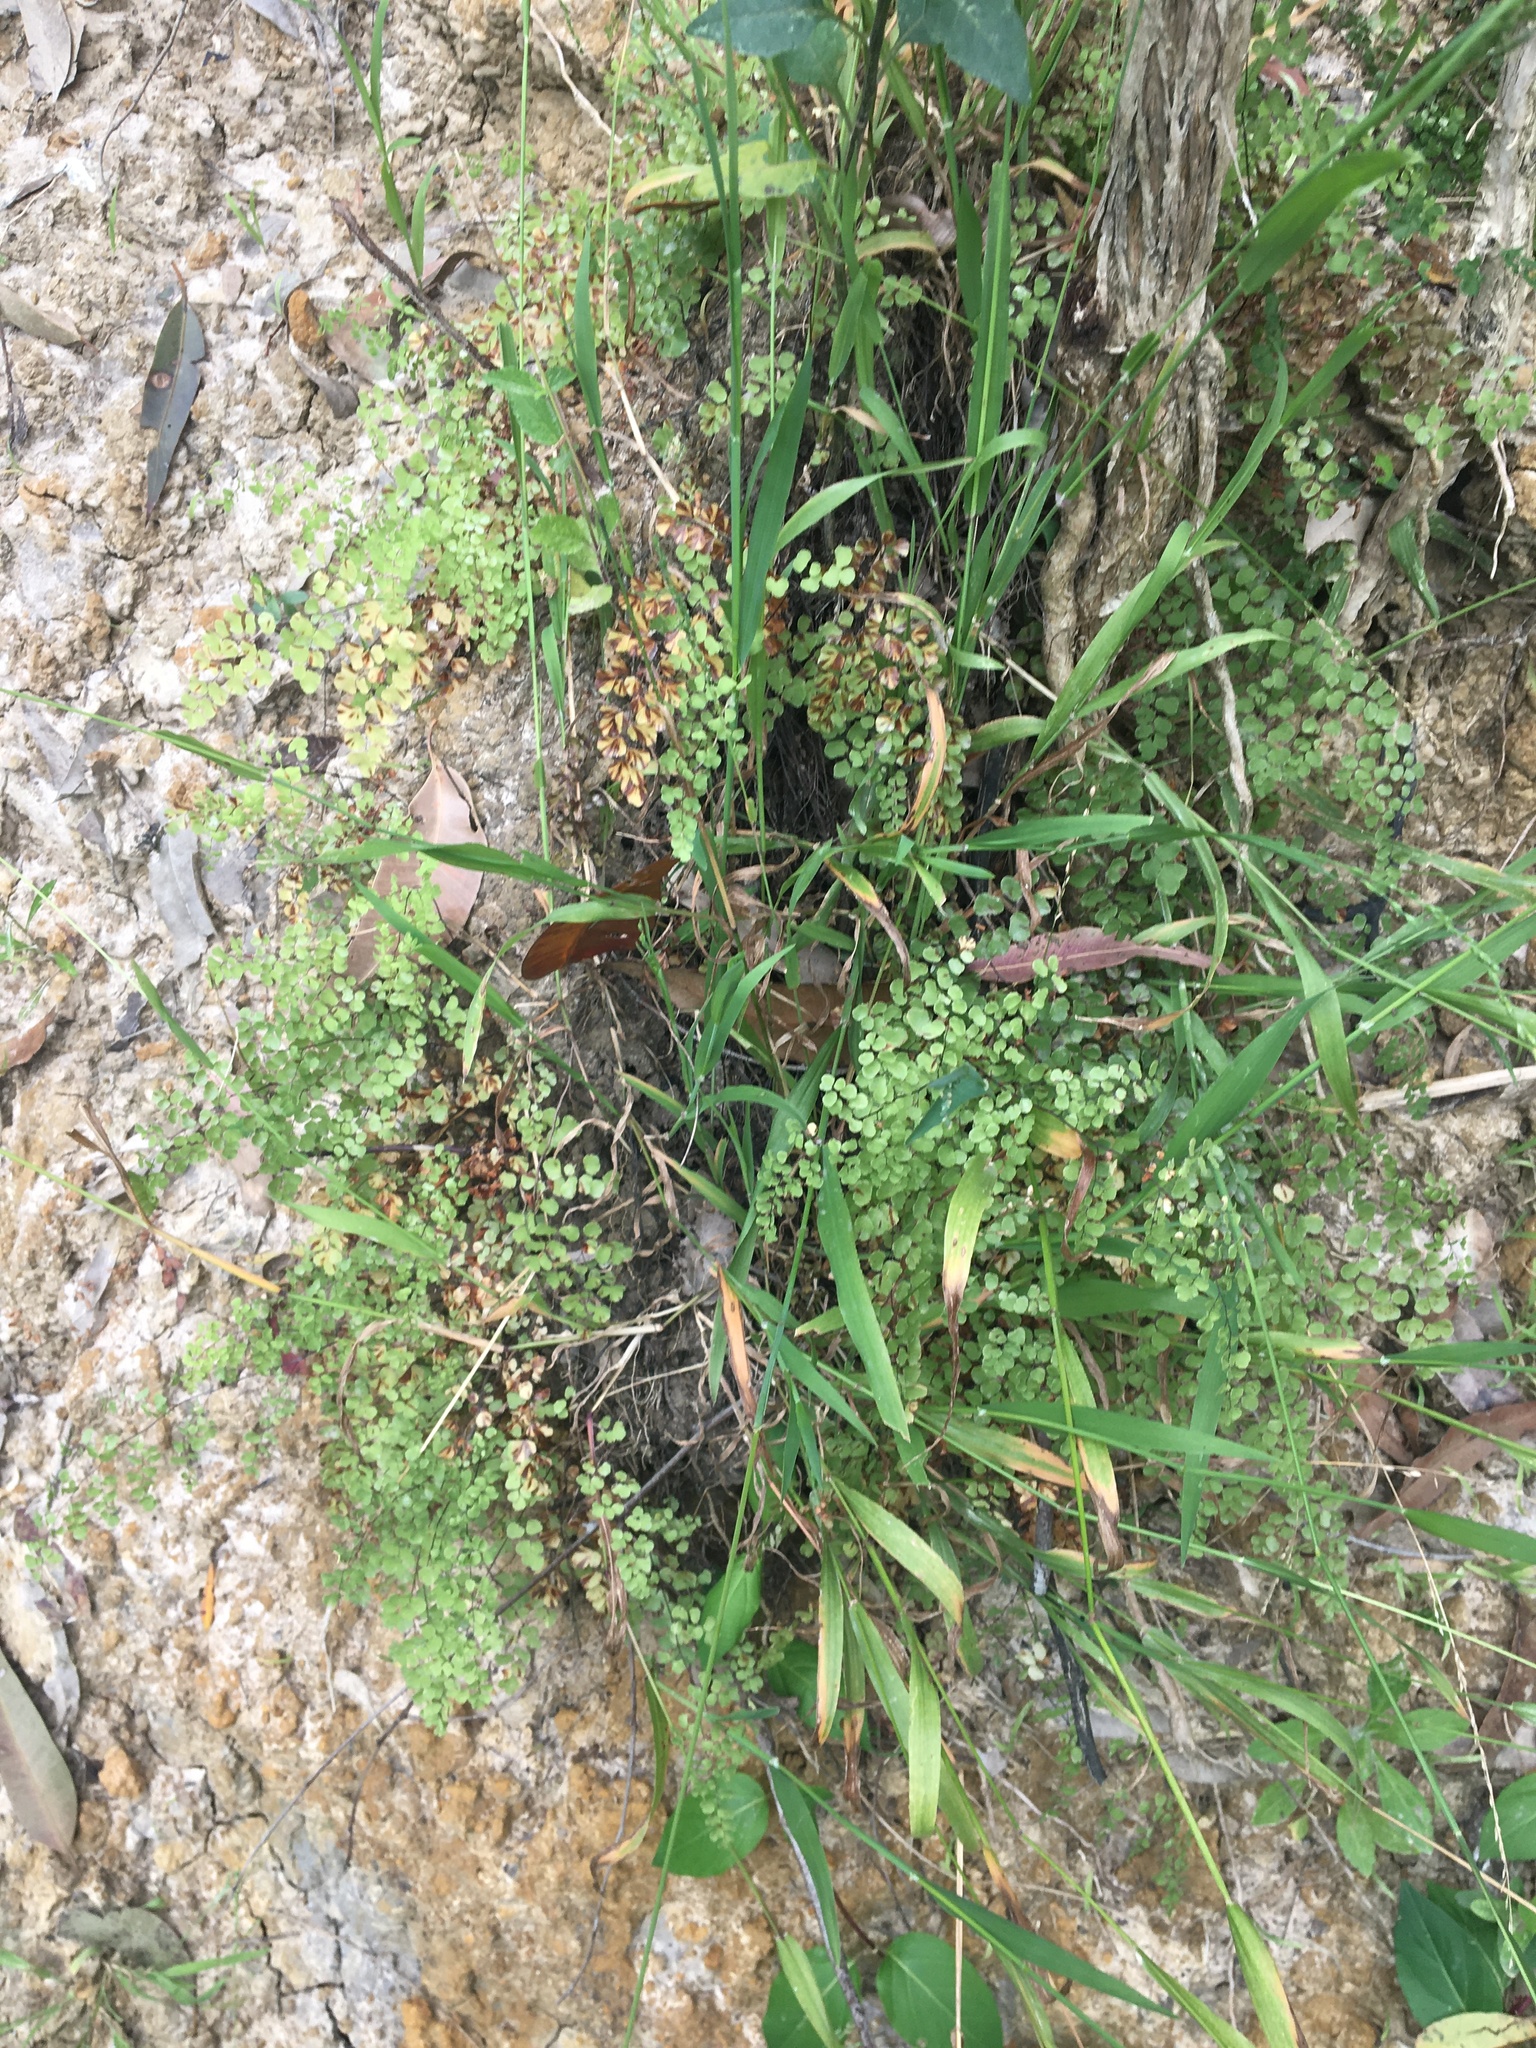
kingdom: Plantae
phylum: Tracheophyta
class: Polypodiopsida
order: Polypodiales
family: Pteridaceae
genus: Adiantum
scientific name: Adiantum aethiopicum
